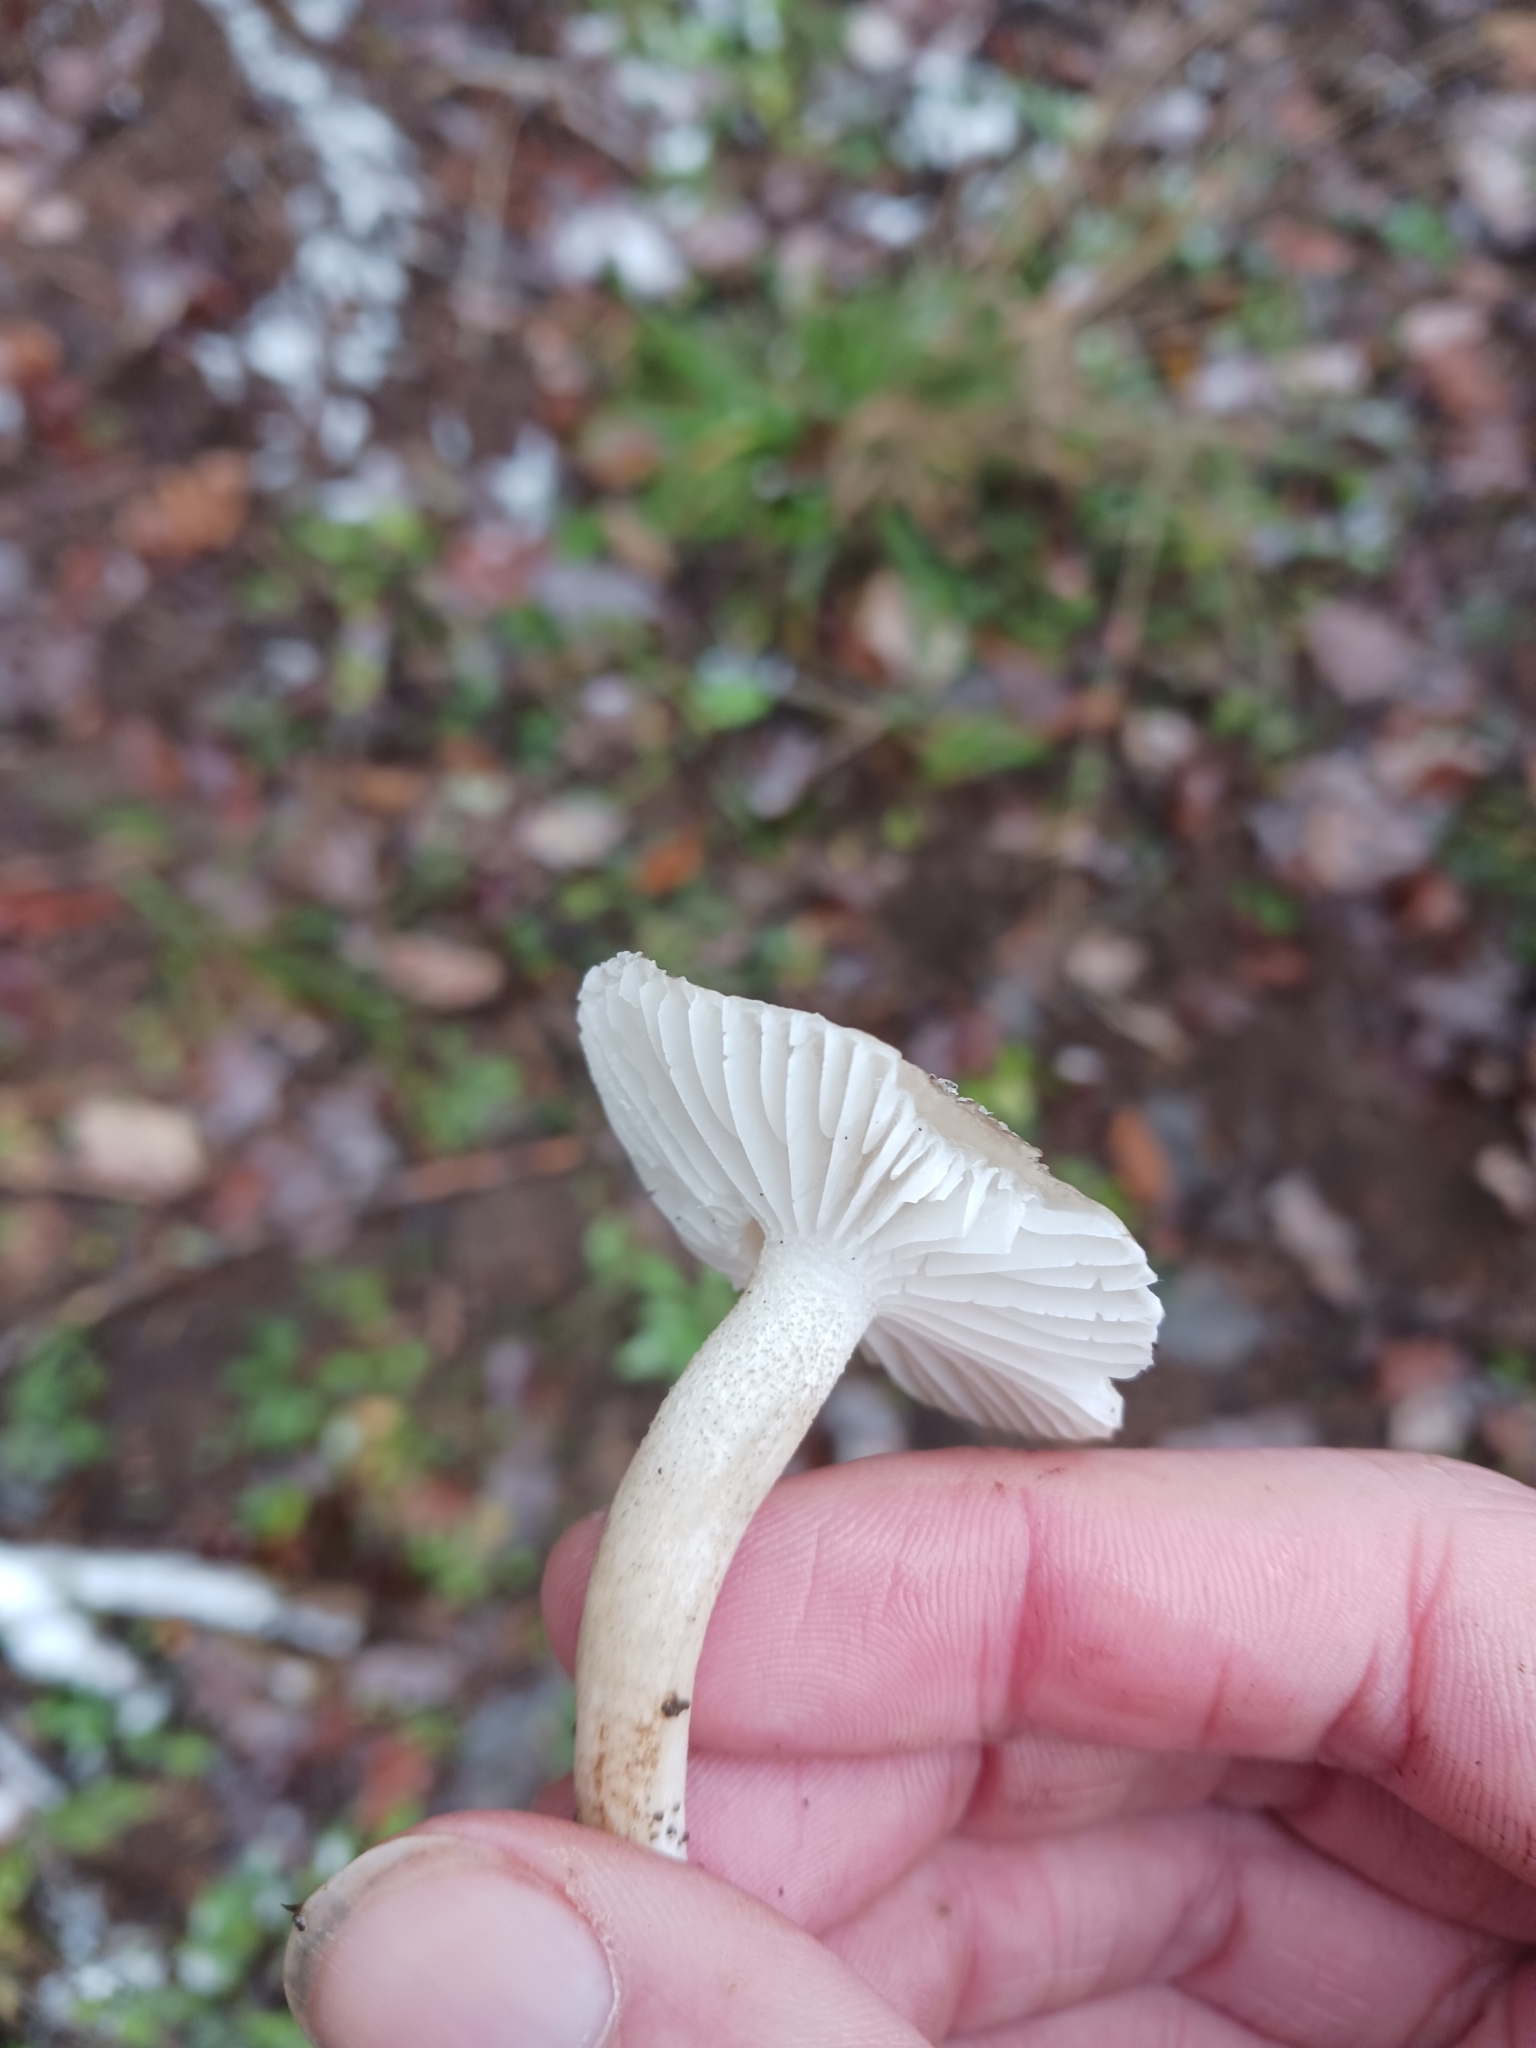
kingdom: Fungi
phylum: Basidiomycota
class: Agaricomycetes
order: Agaricales
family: Hygrophoraceae
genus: Hygrophorus
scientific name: Hygrophorus pustulatus
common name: Blistered woodwax
